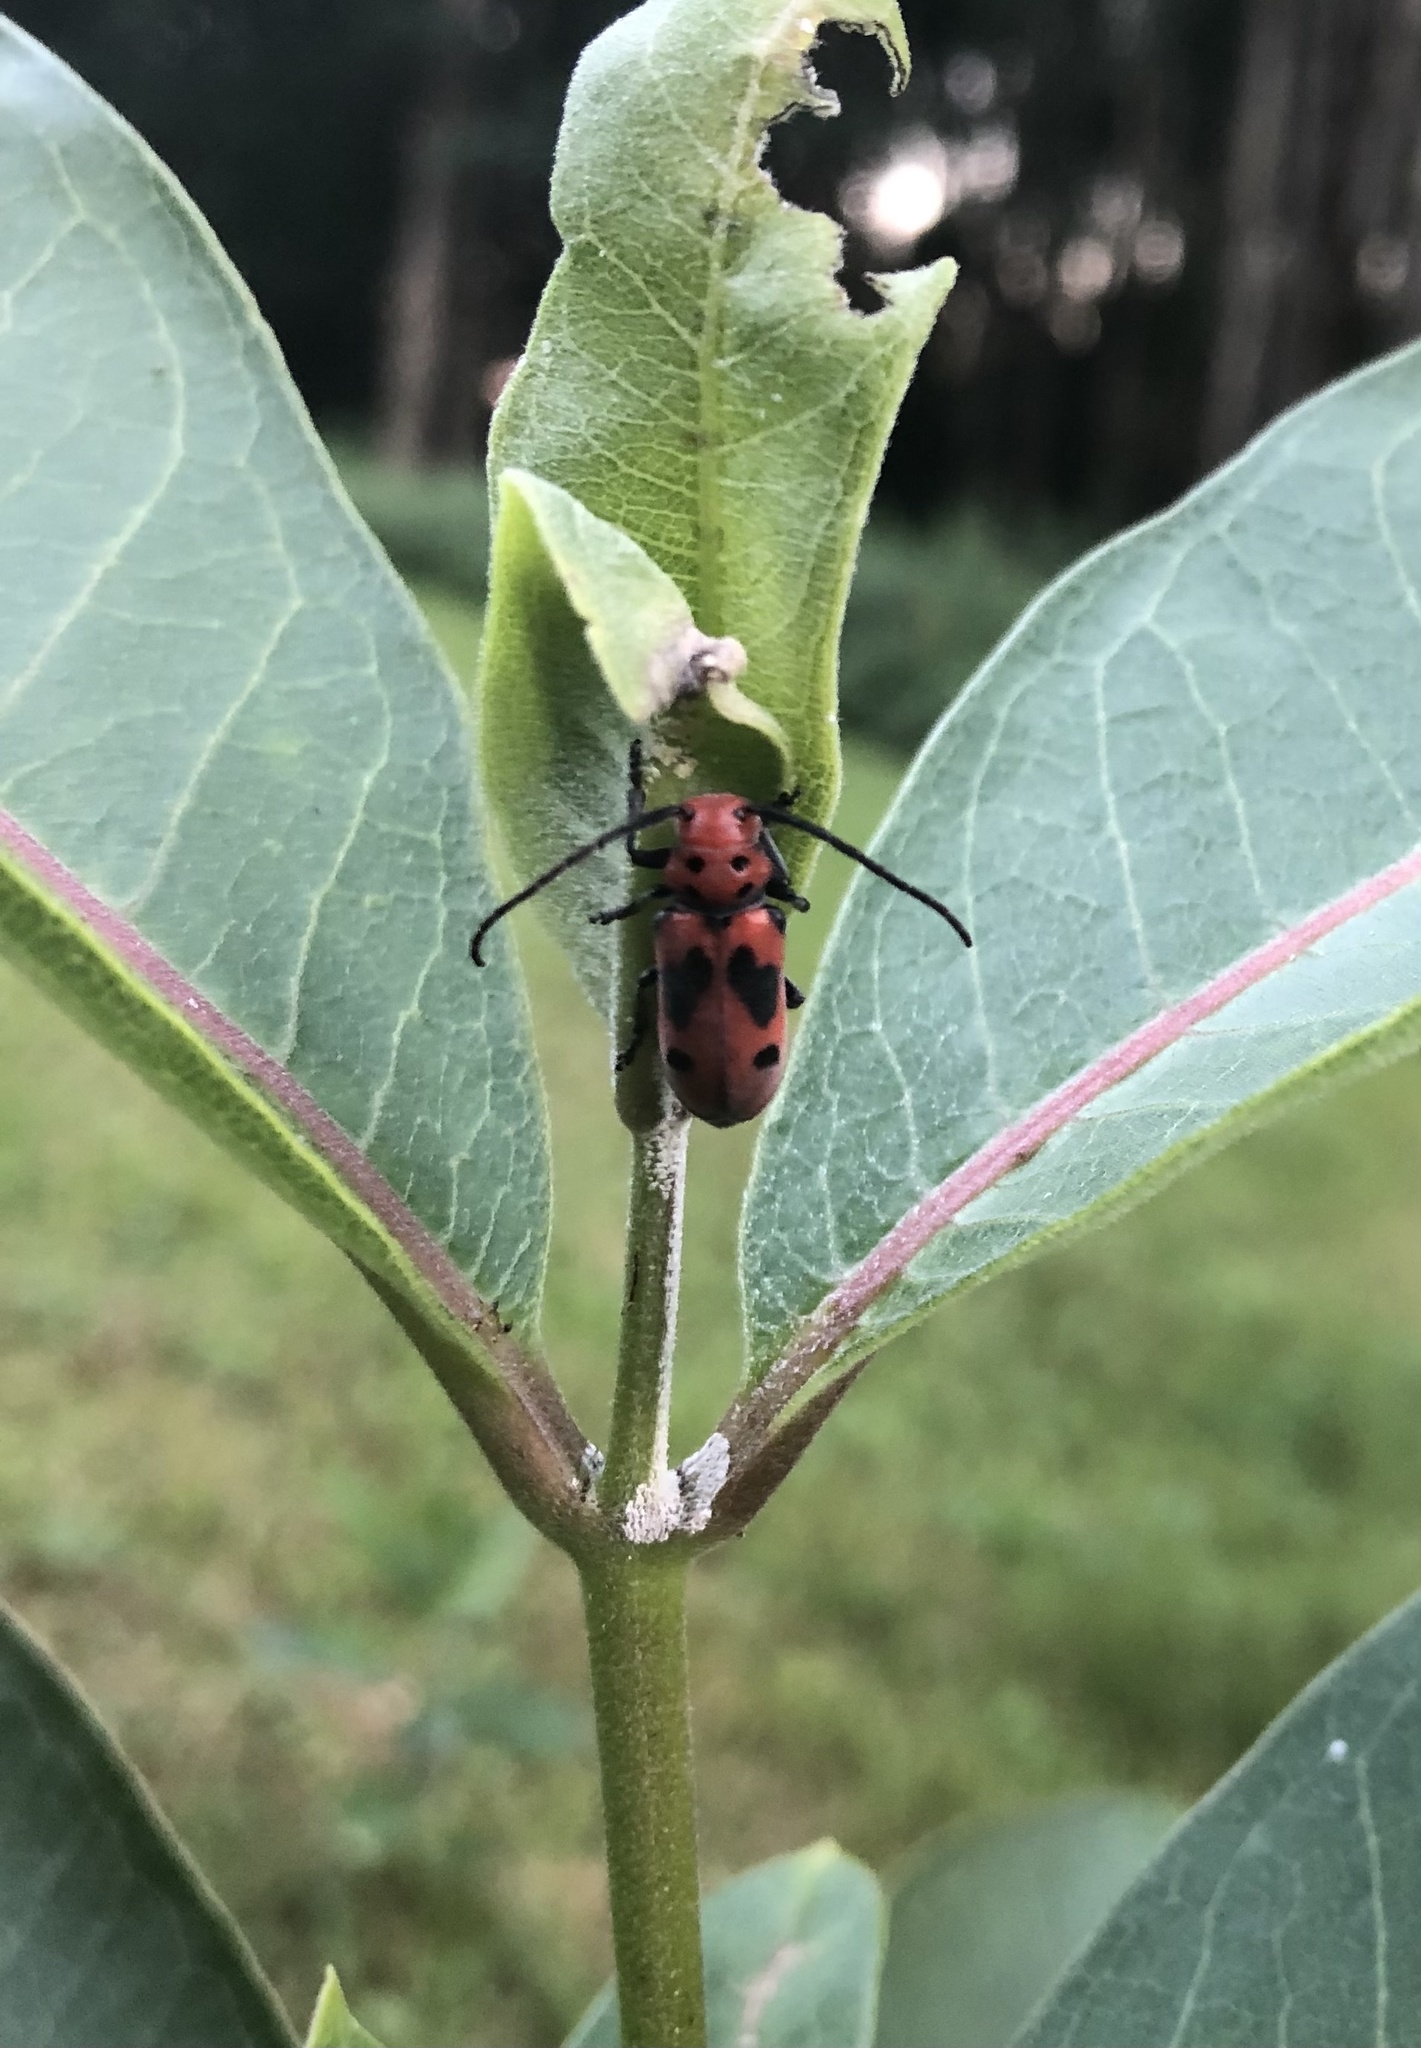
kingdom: Animalia
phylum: Arthropoda
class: Insecta
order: Coleoptera
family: Cerambycidae
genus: Tetraopes
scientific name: Tetraopes tetrophthalmus
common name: Red milkweed beetle
